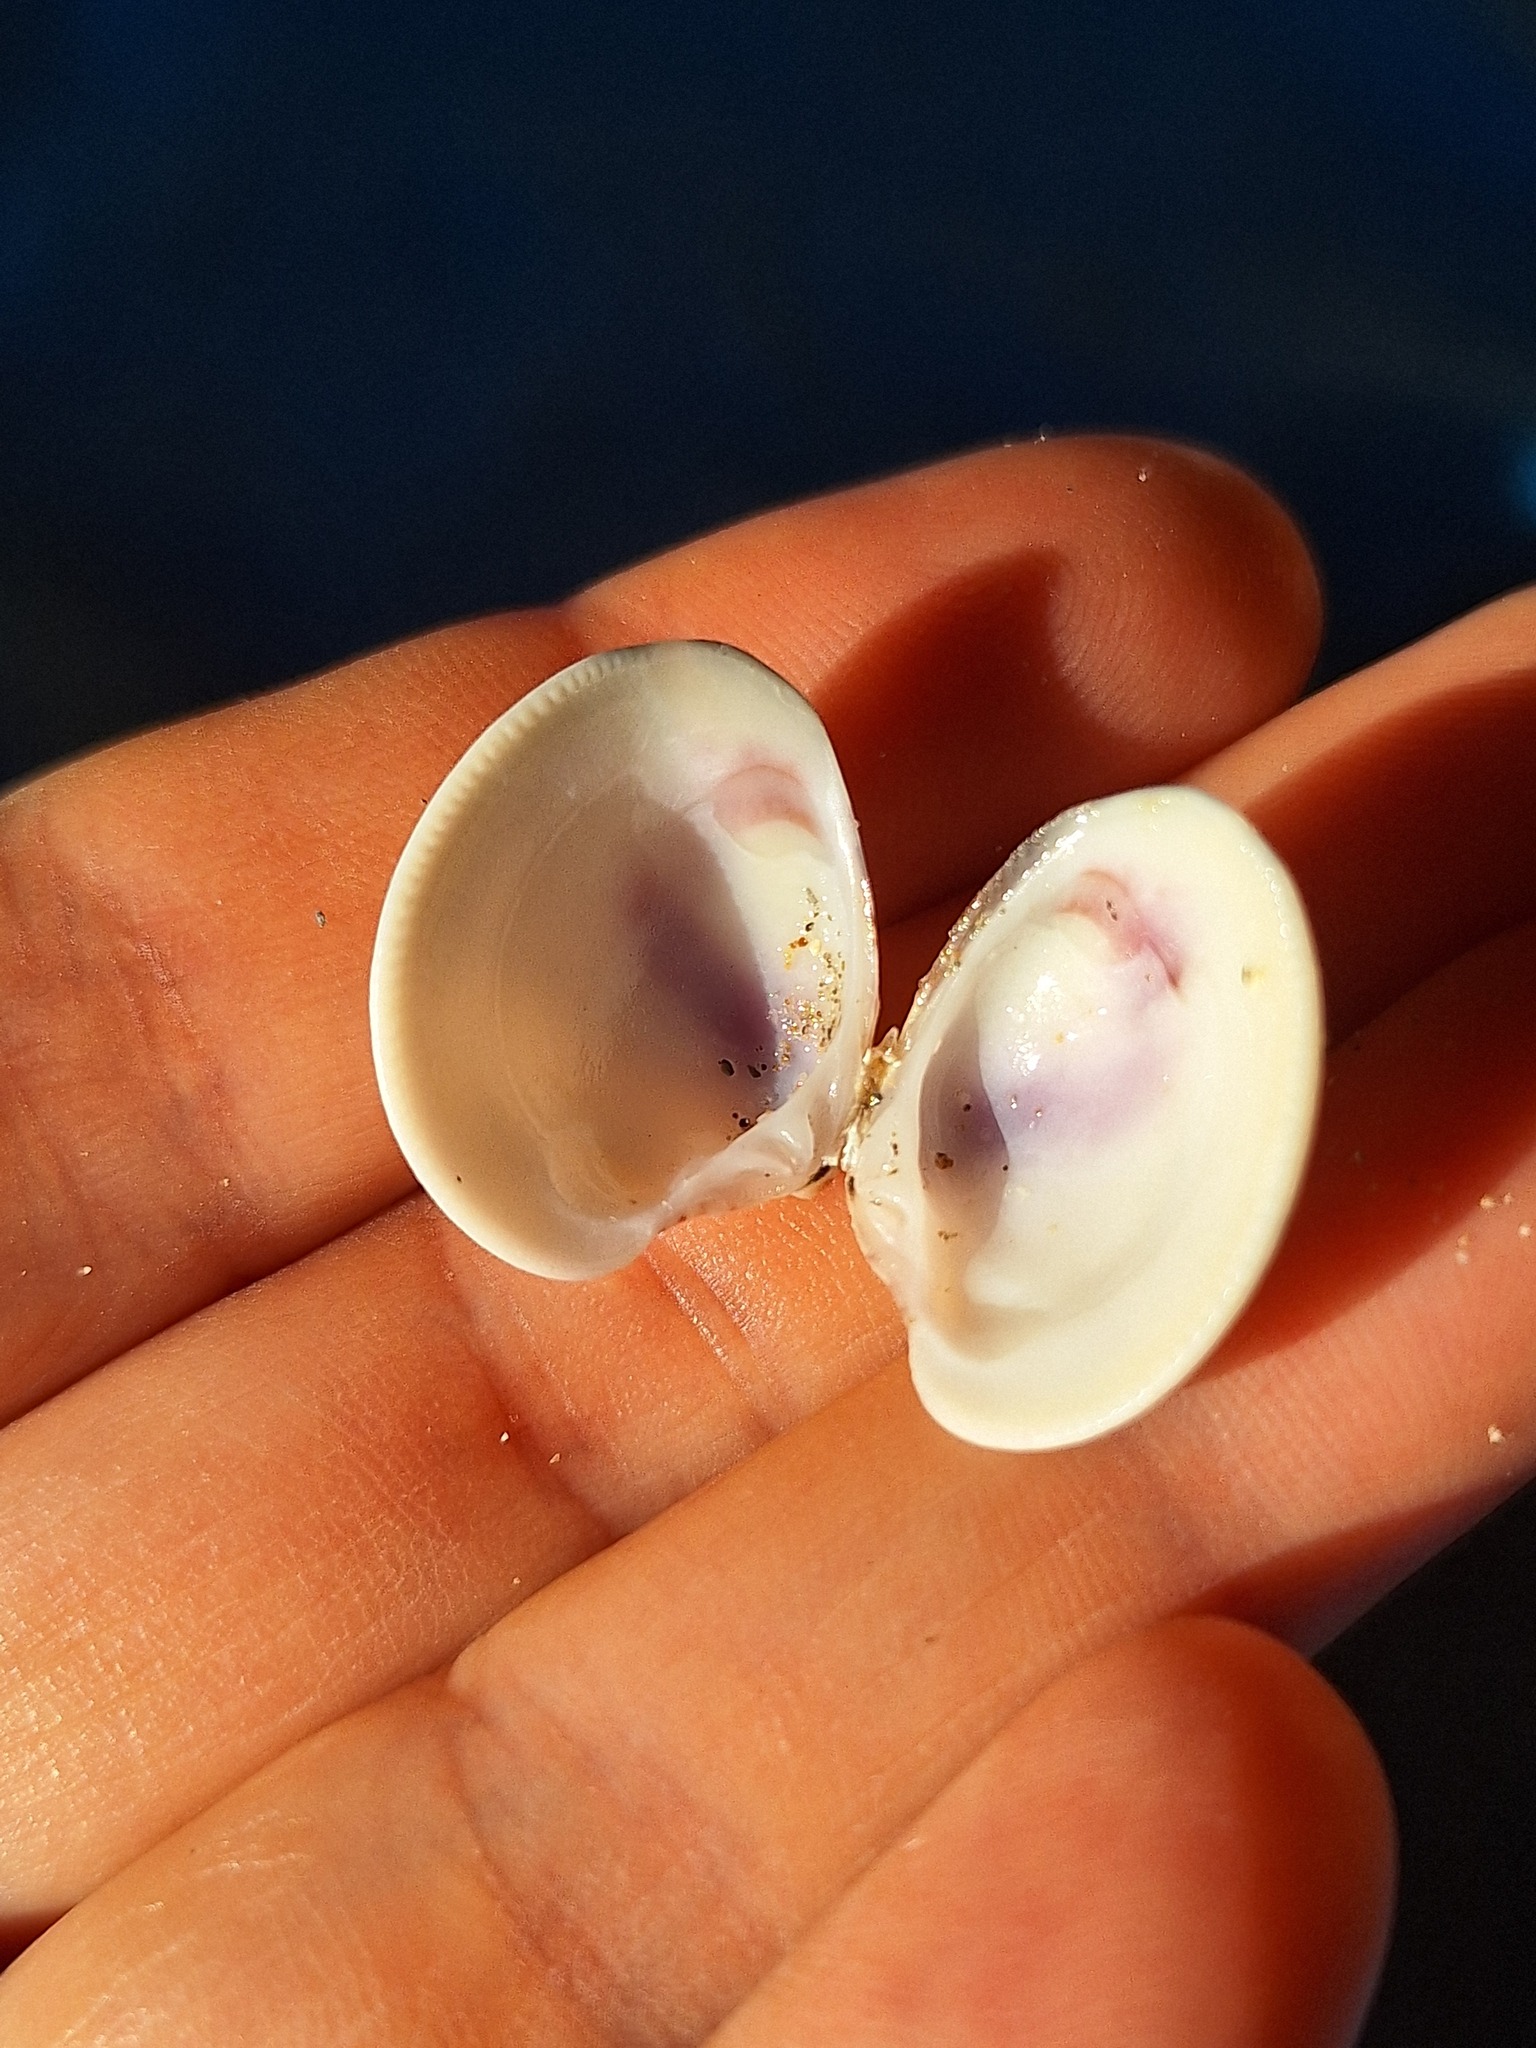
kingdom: Animalia
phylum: Mollusca
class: Bivalvia
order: Venerida
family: Veneridae
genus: Chamelea
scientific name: Chamelea gallina
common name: Chicken venus
